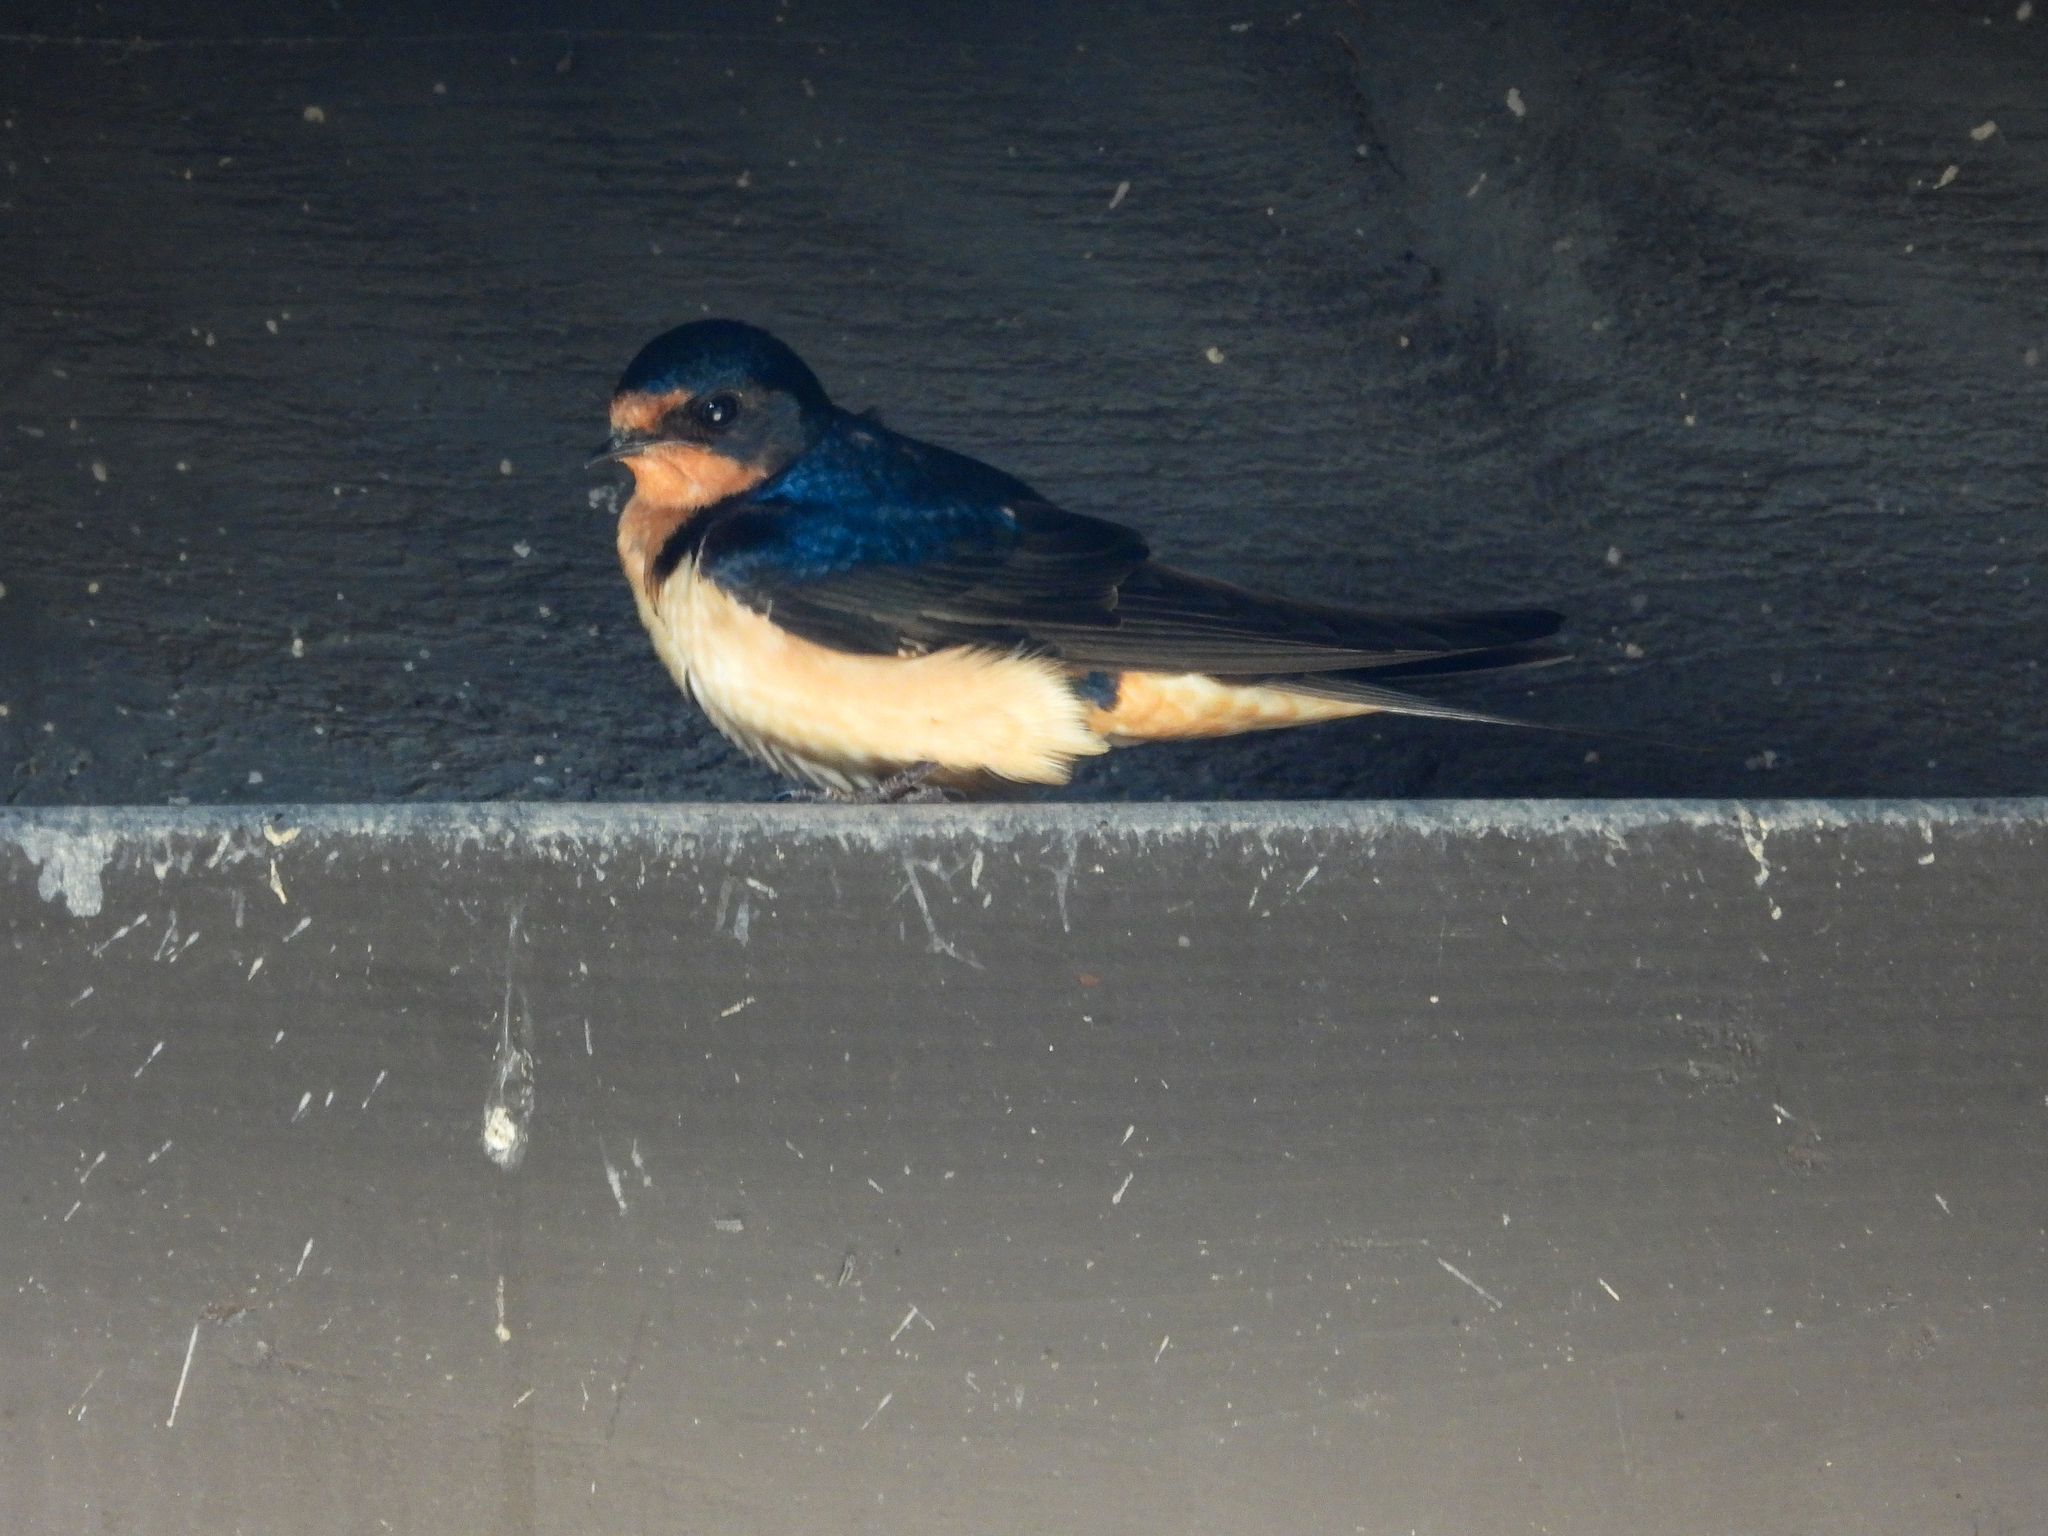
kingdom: Animalia
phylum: Chordata
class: Aves
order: Passeriformes
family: Hirundinidae
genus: Hirundo
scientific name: Hirundo rustica
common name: Barn swallow
